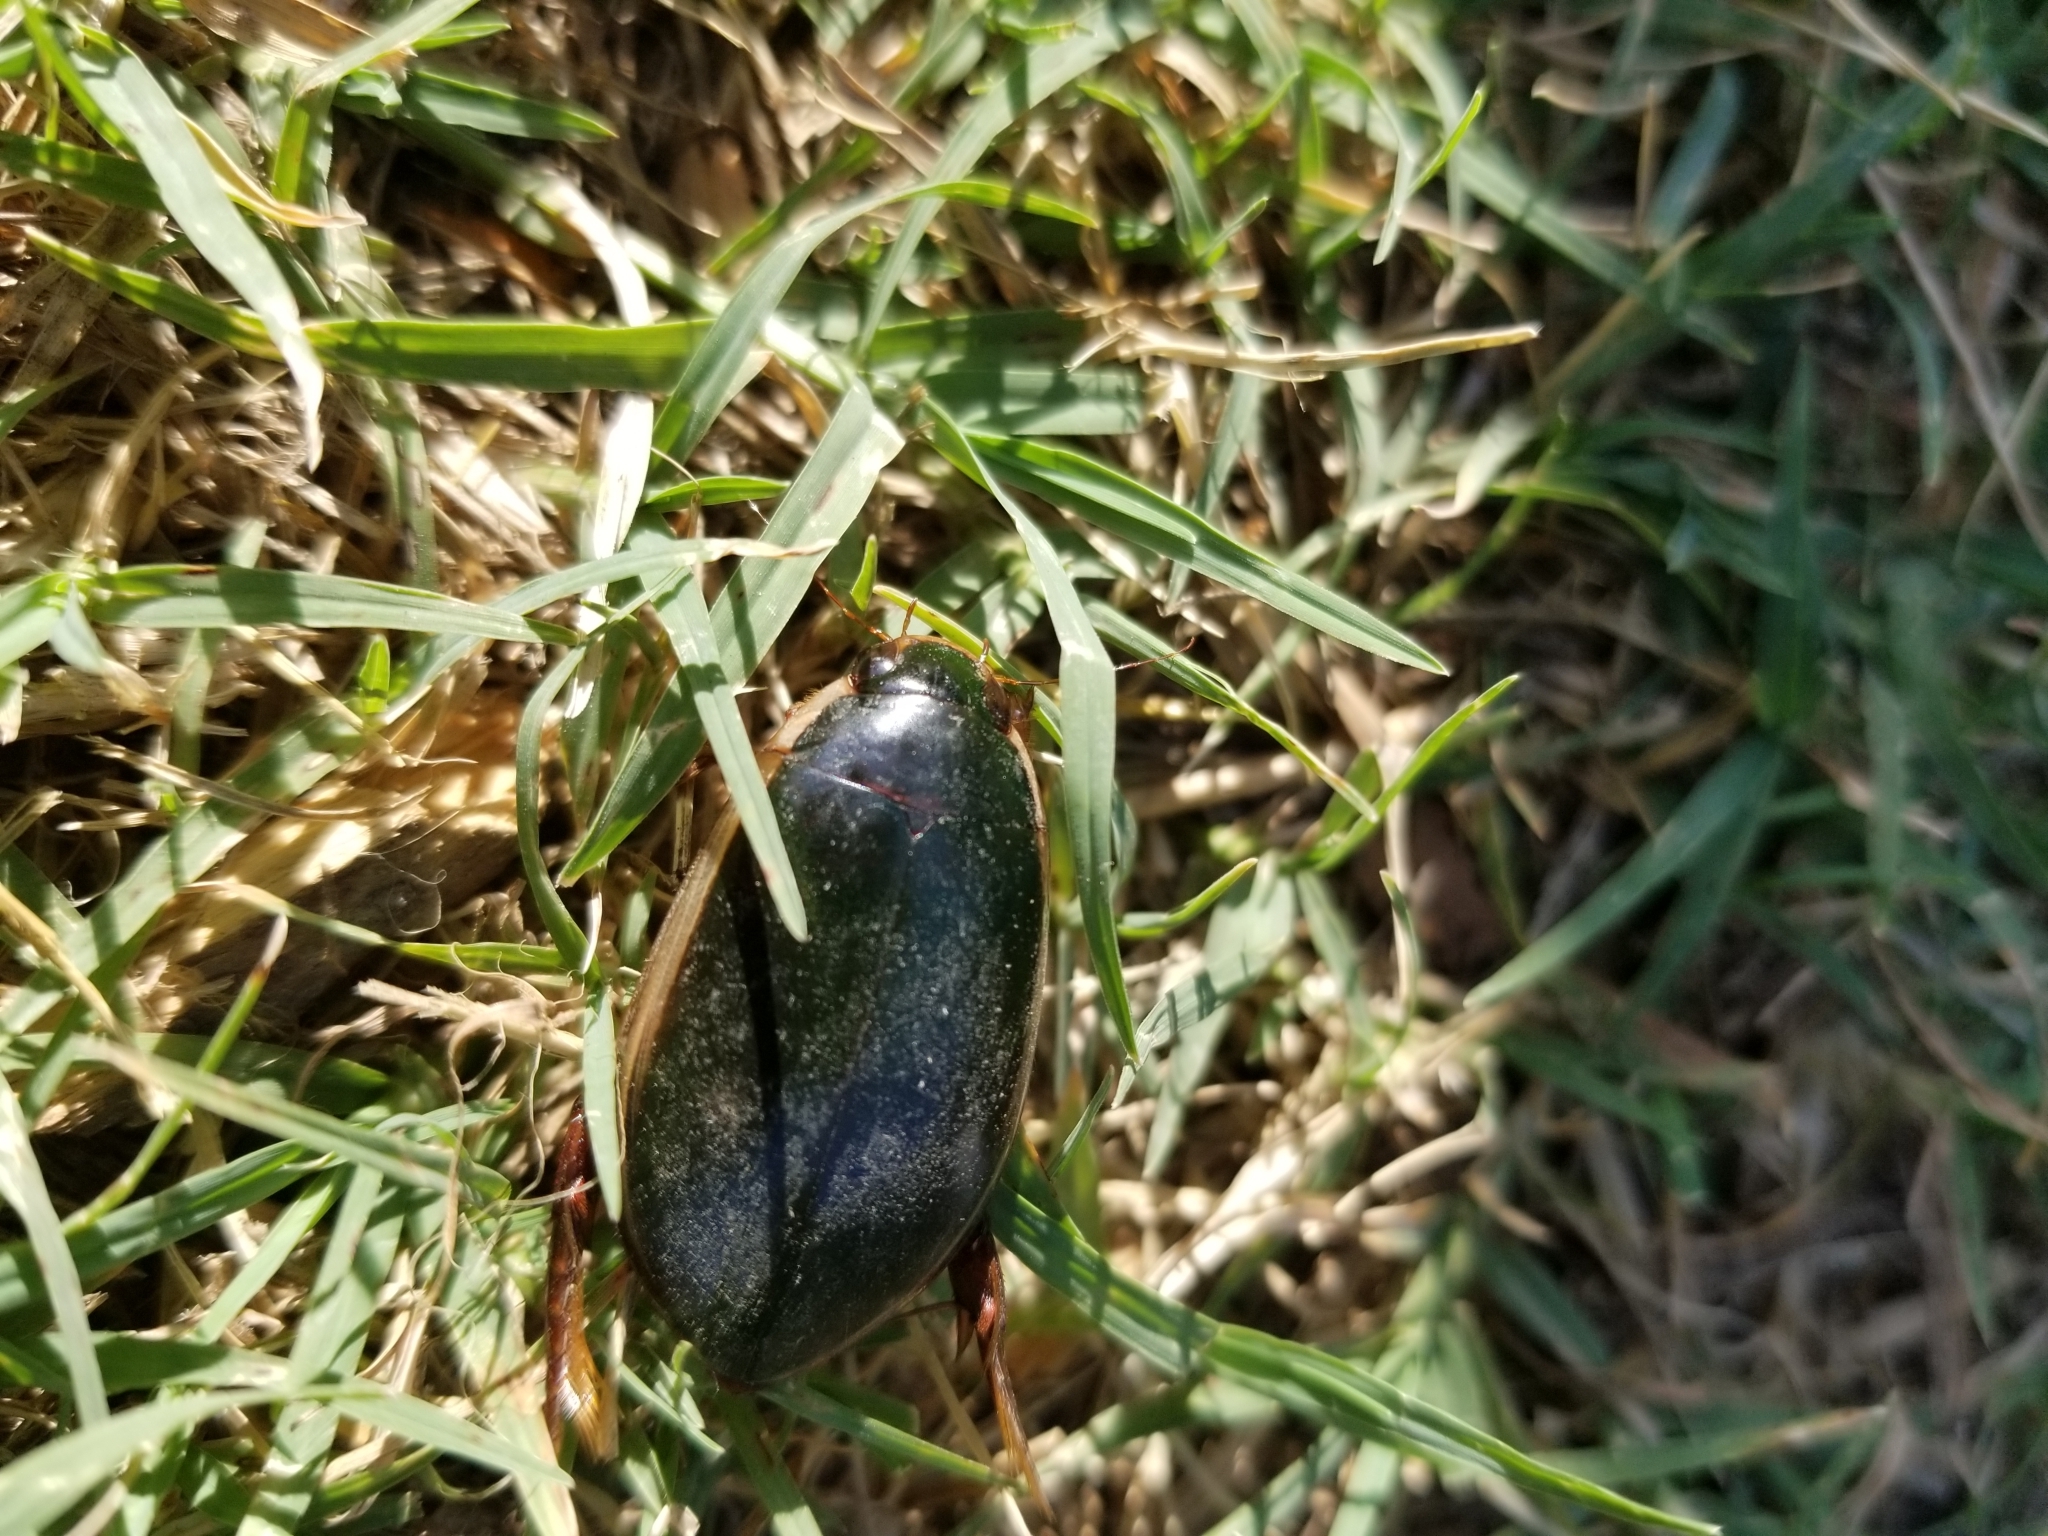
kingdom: Animalia
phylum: Arthropoda
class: Insecta
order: Coleoptera
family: Dytiscidae
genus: Cybister
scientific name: Cybister fimbriolatus
